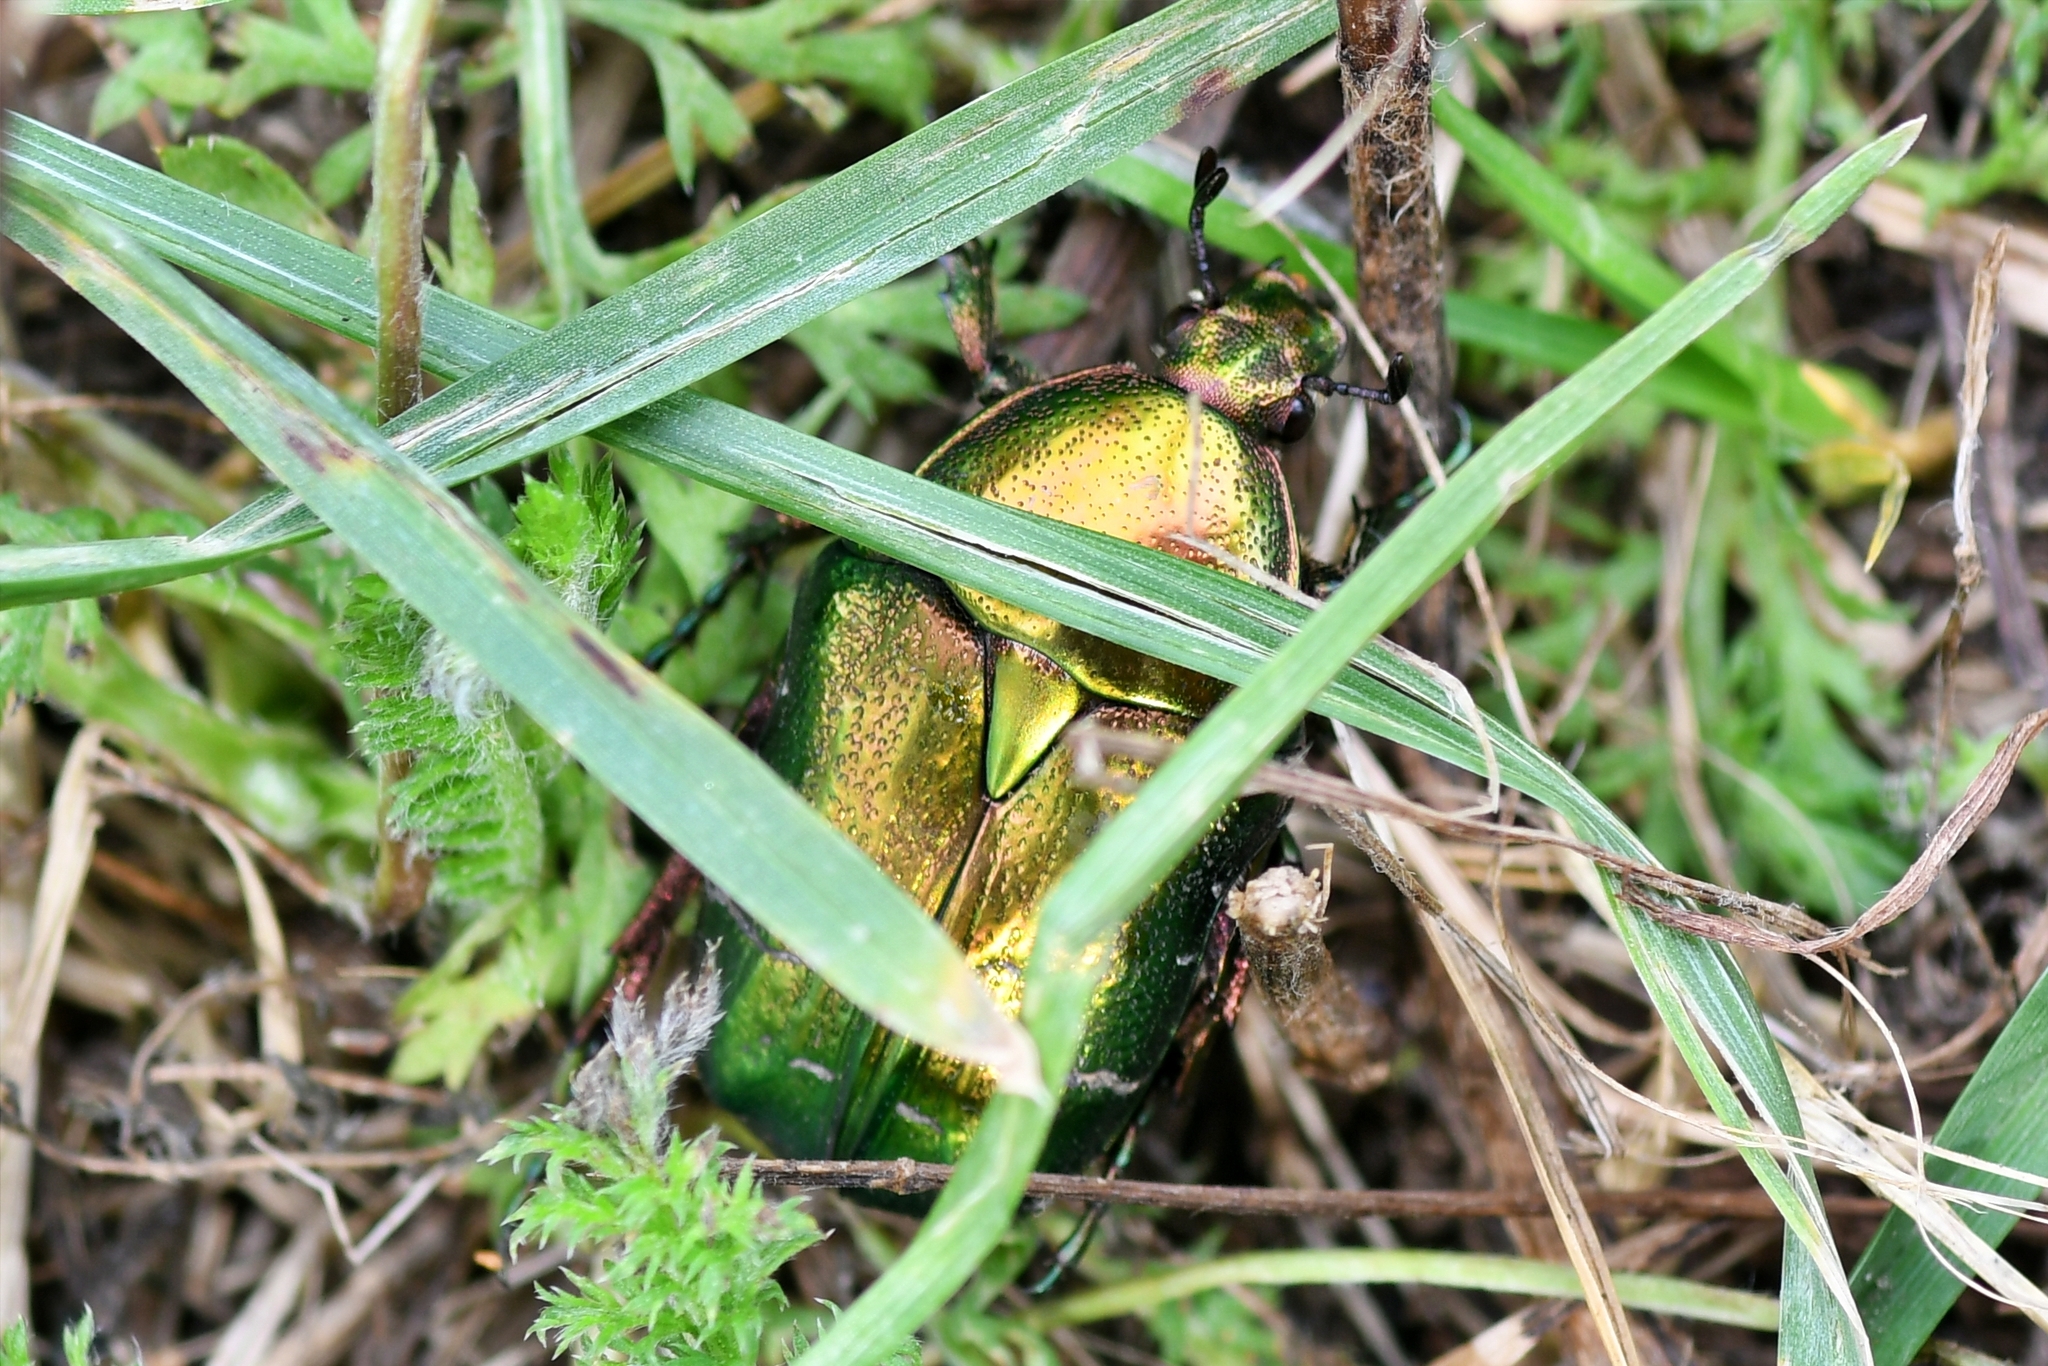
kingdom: Animalia
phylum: Arthropoda
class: Insecta
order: Coleoptera
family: Scarabaeidae
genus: Cetonia
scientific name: Cetonia aurata
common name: Rose chafer
